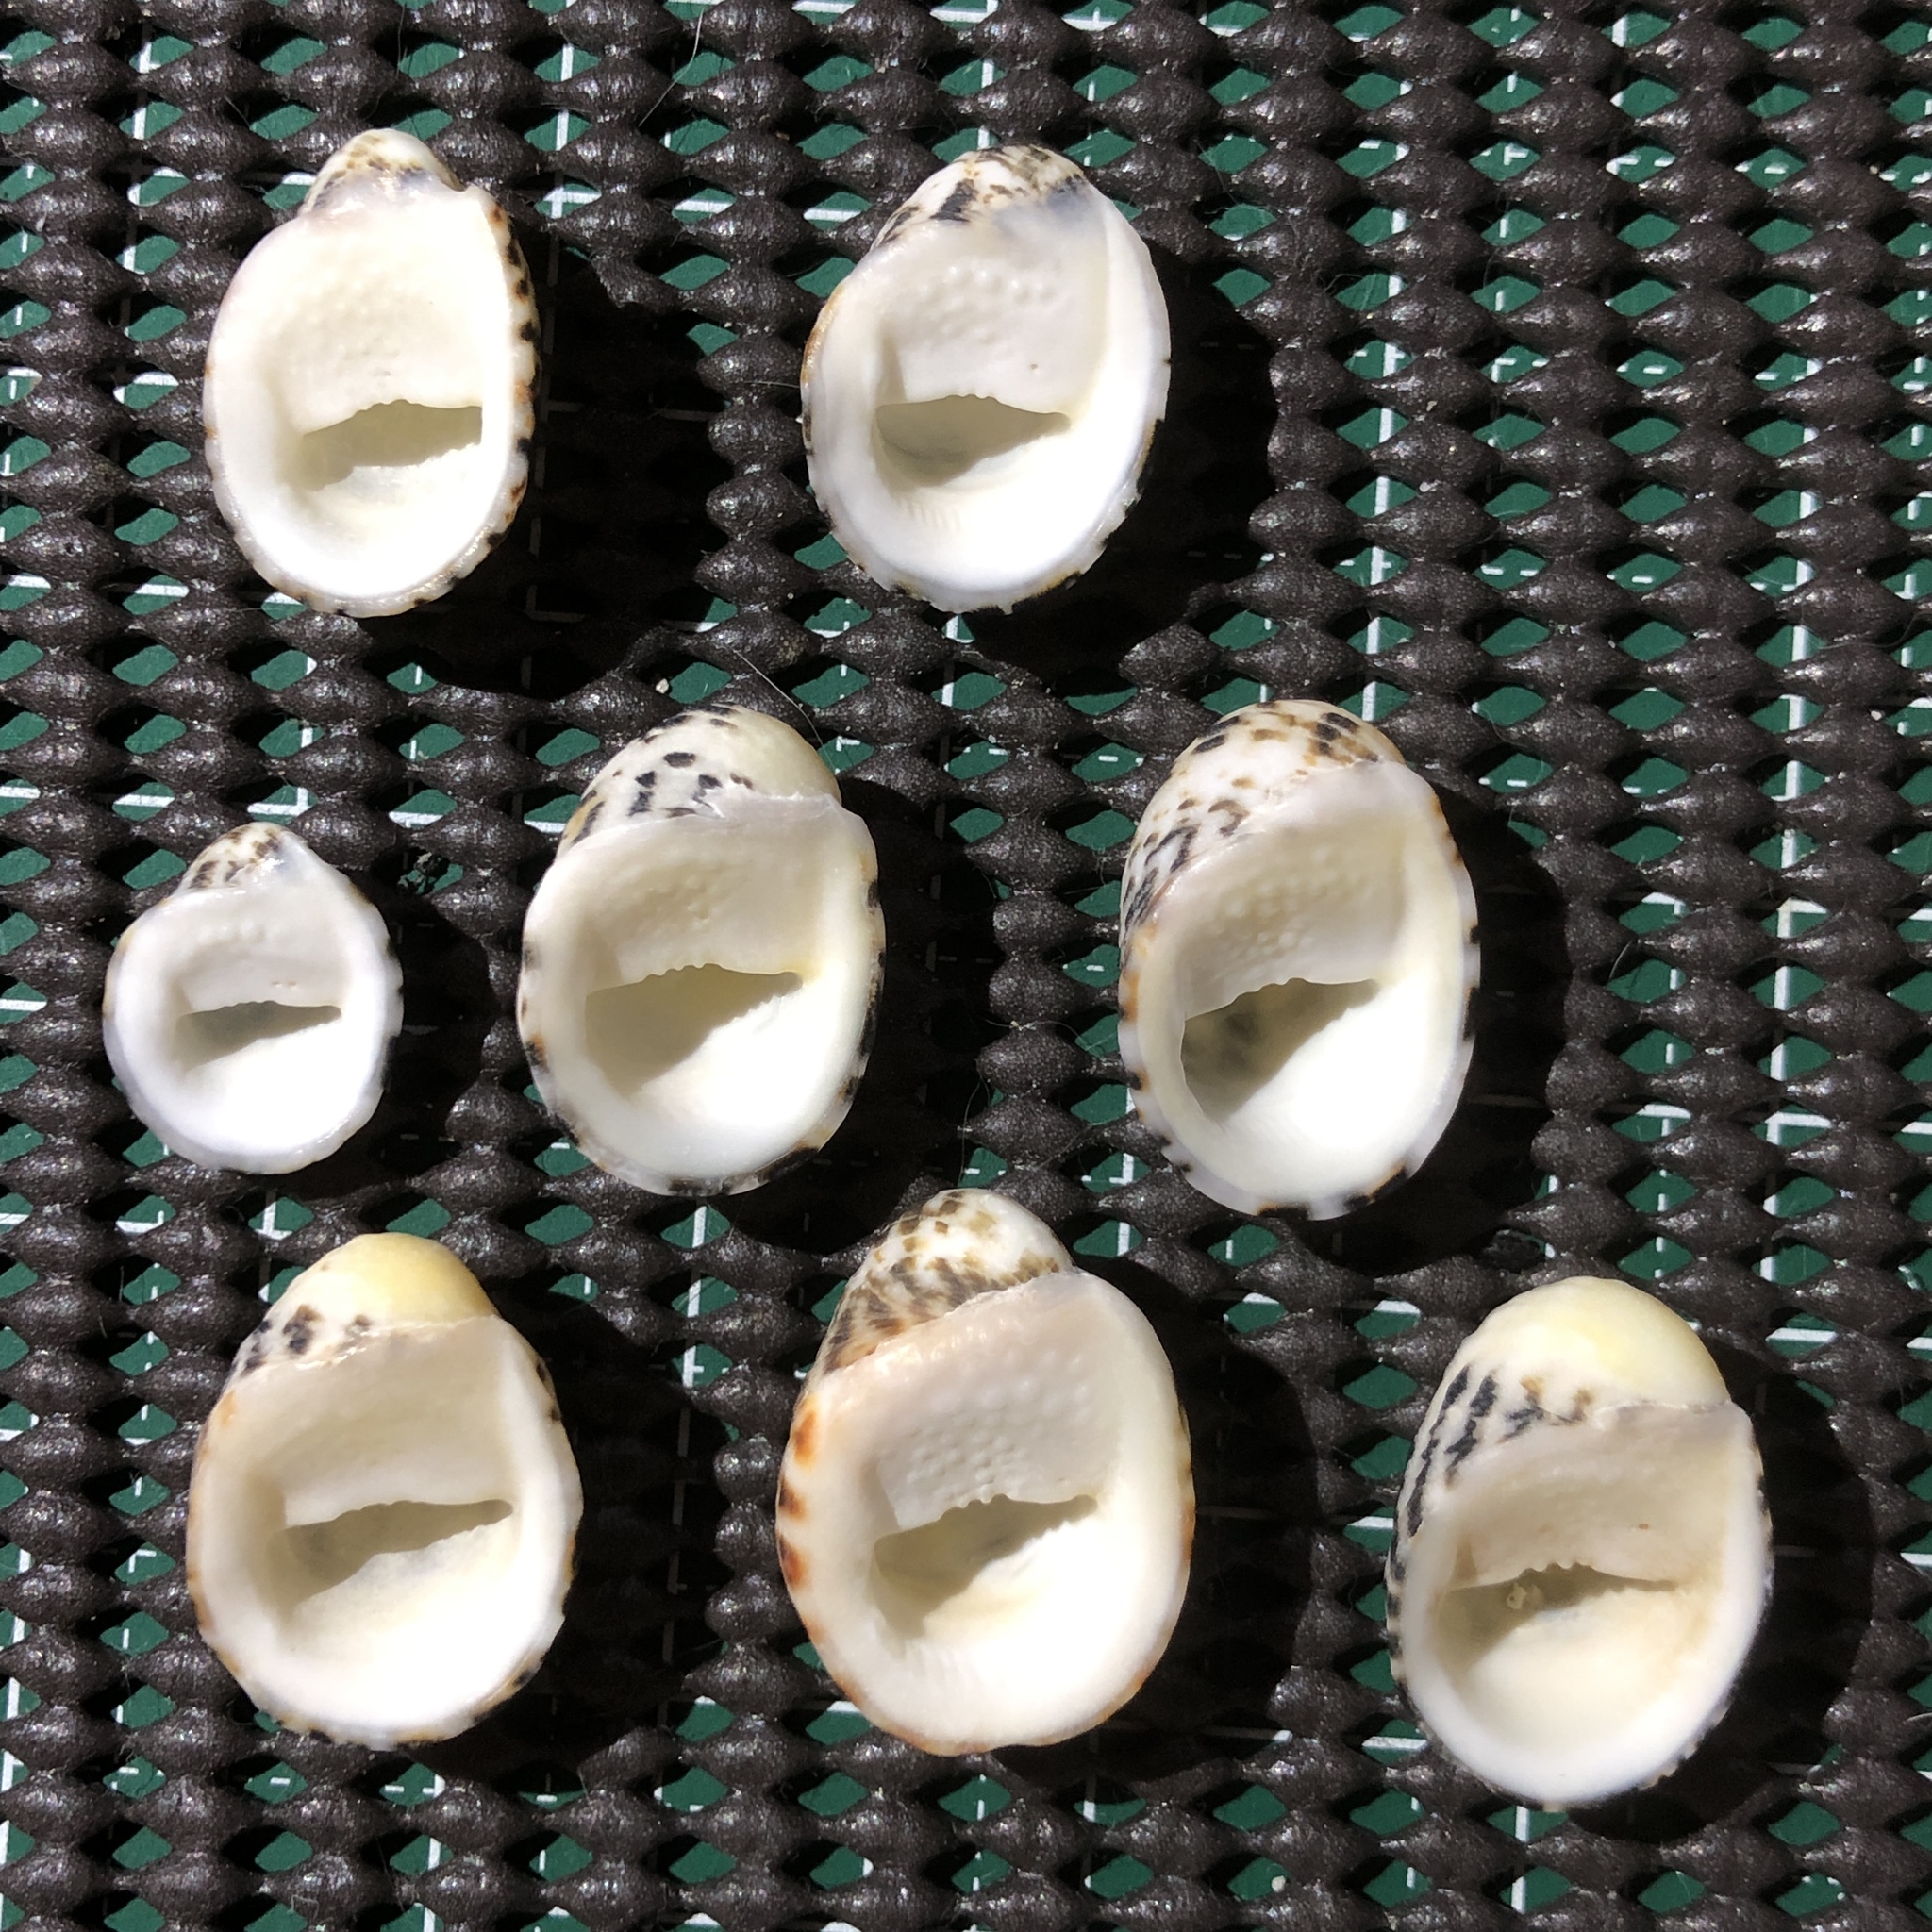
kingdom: Animalia
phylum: Mollusca
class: Gastropoda
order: Cycloneritida
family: Neritidae
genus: Nerita
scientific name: Nerita albicilla
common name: Blotched nerite
